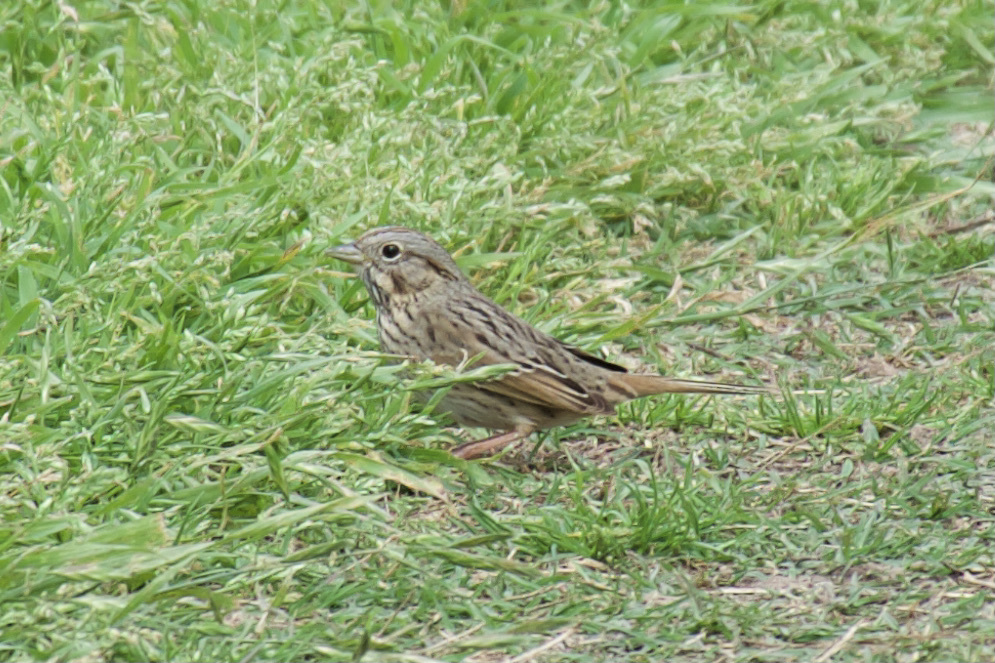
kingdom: Animalia
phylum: Chordata
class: Aves
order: Passeriformes
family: Passerellidae
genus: Melospiza
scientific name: Melospiza lincolnii
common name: Lincoln's sparrow
